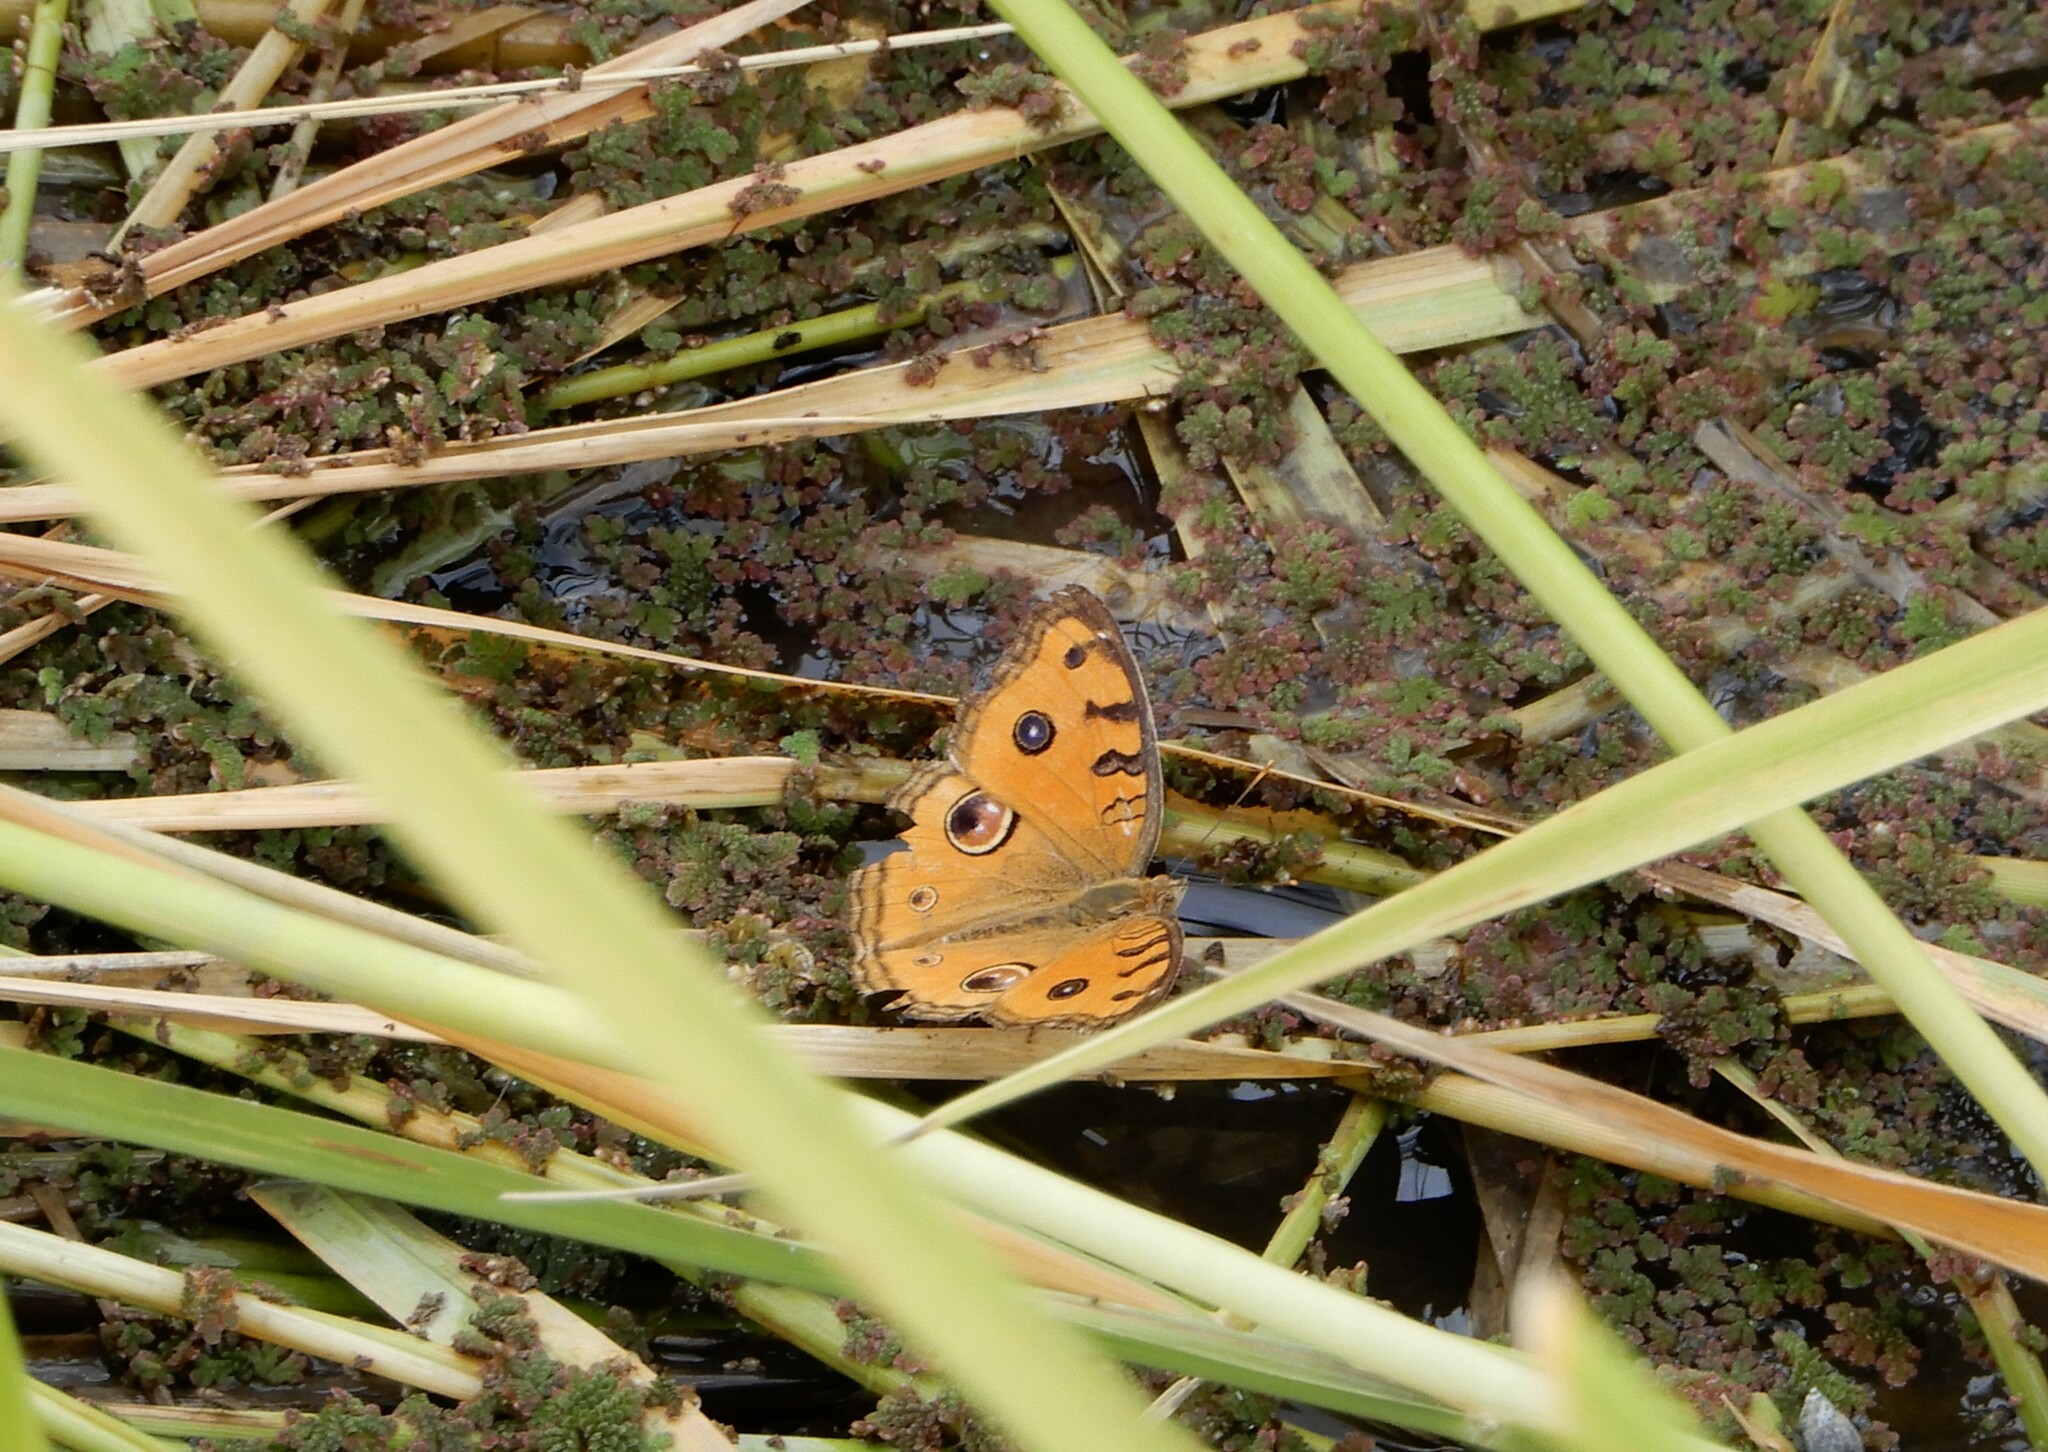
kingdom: Animalia
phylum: Arthropoda
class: Insecta
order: Lepidoptera
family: Nymphalidae
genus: Junonia
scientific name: Junonia almana
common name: Peacock pansy
